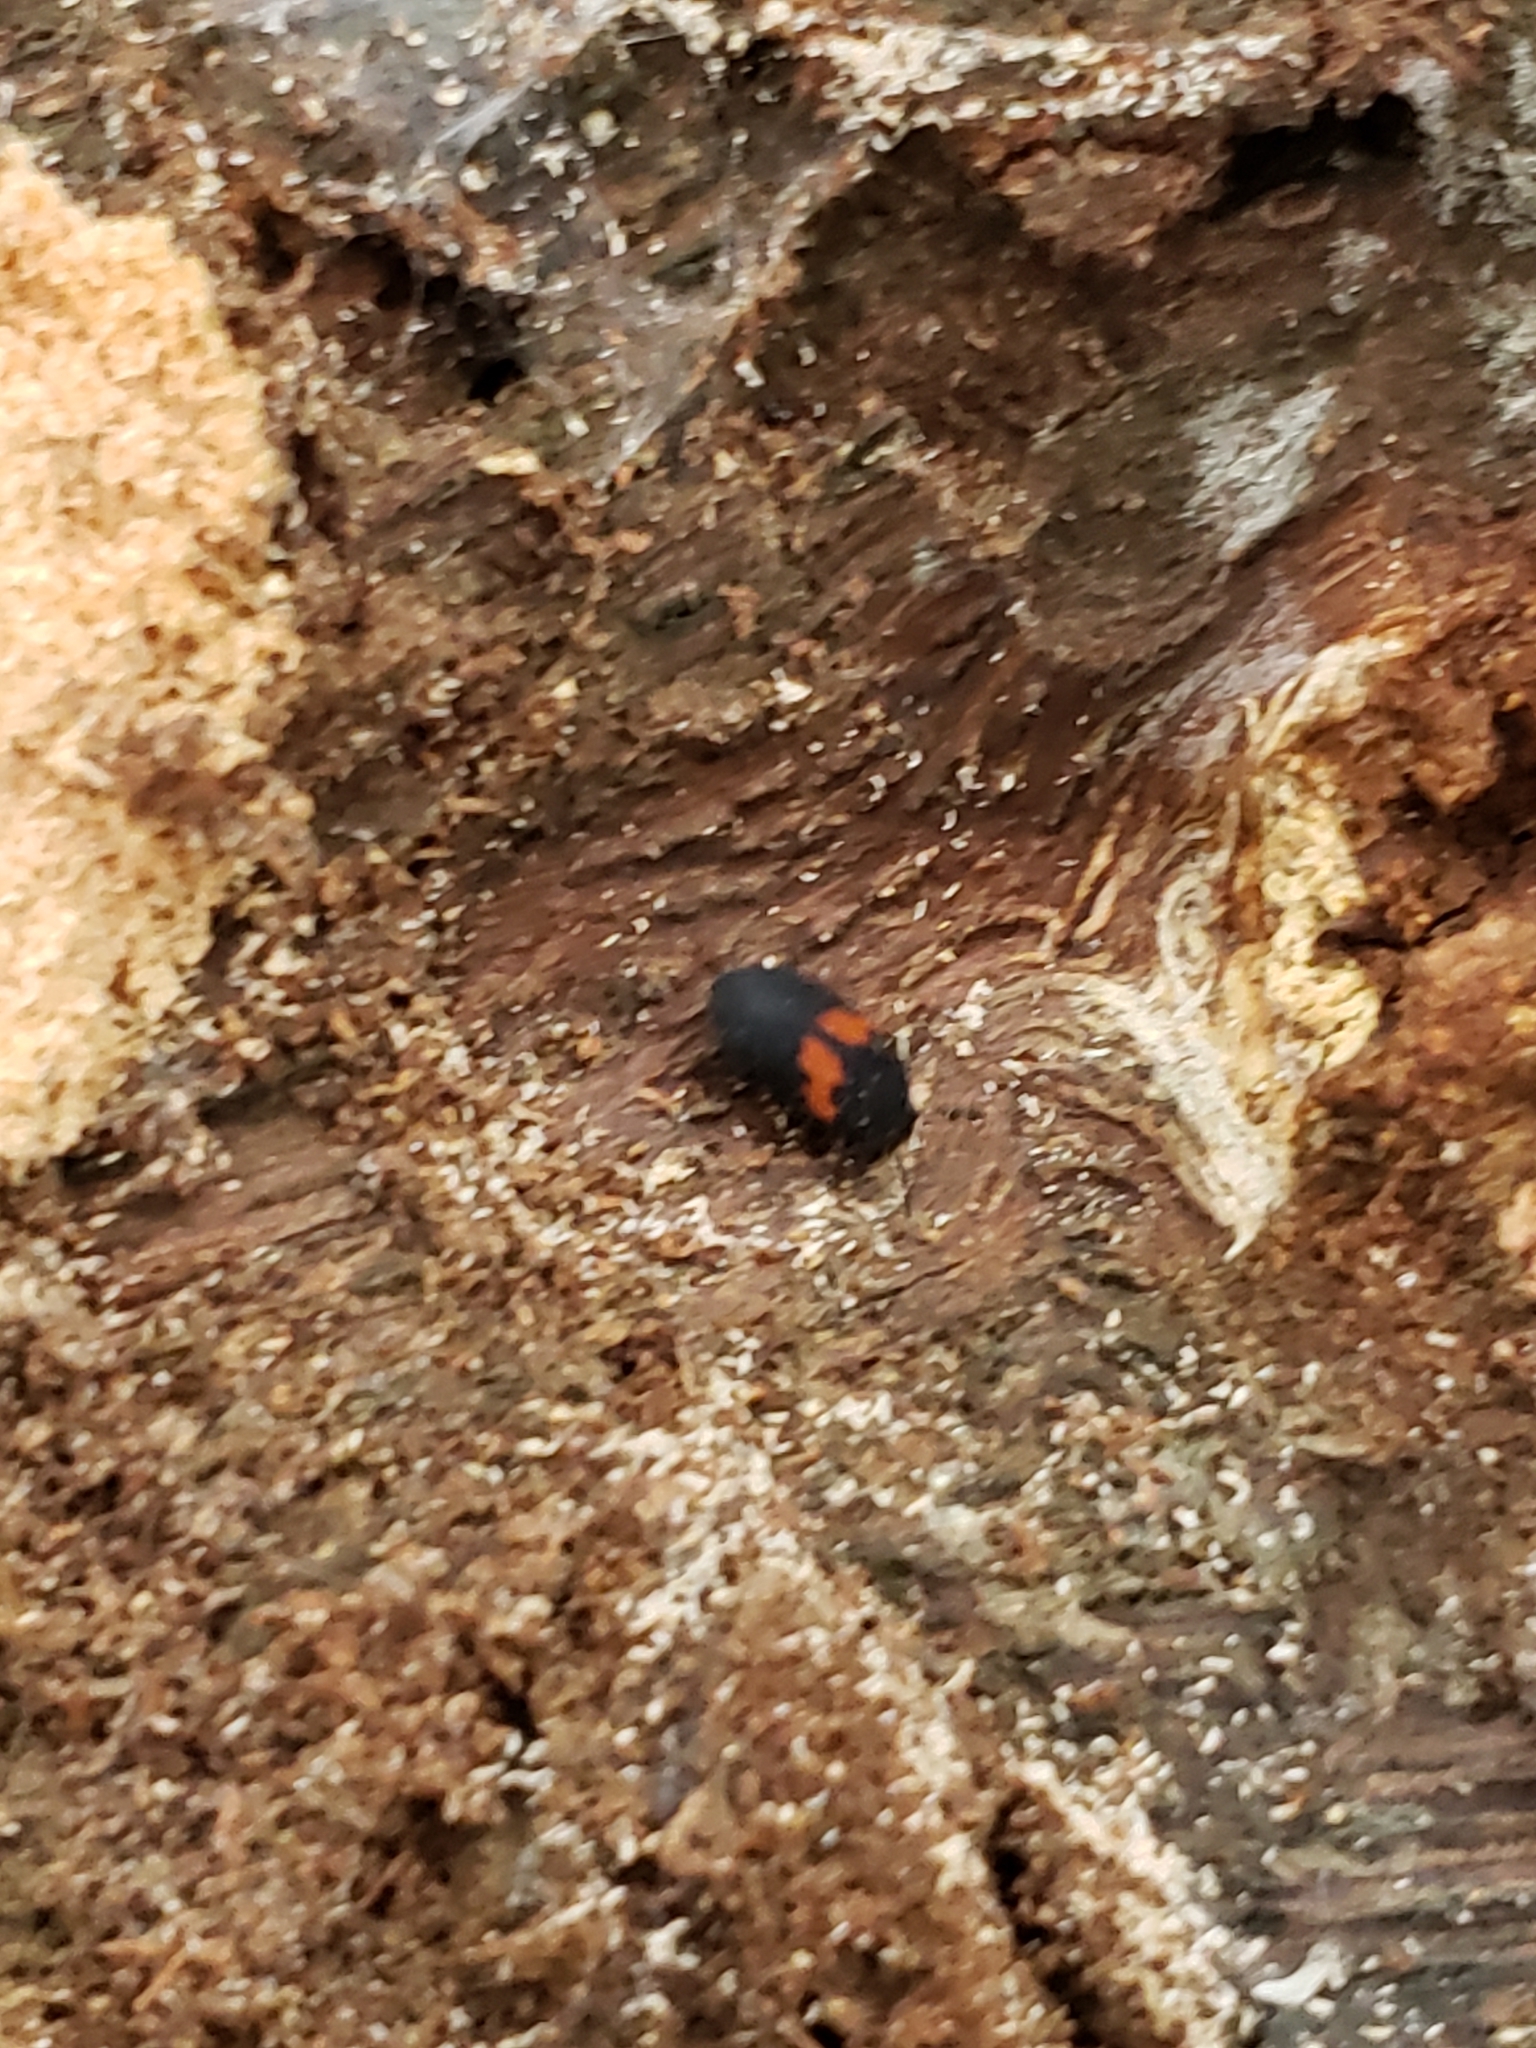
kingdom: Animalia
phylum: Arthropoda
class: Insecta
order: Coleoptera
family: Tenebrionidae
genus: Platydema
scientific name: Platydema elliptica
